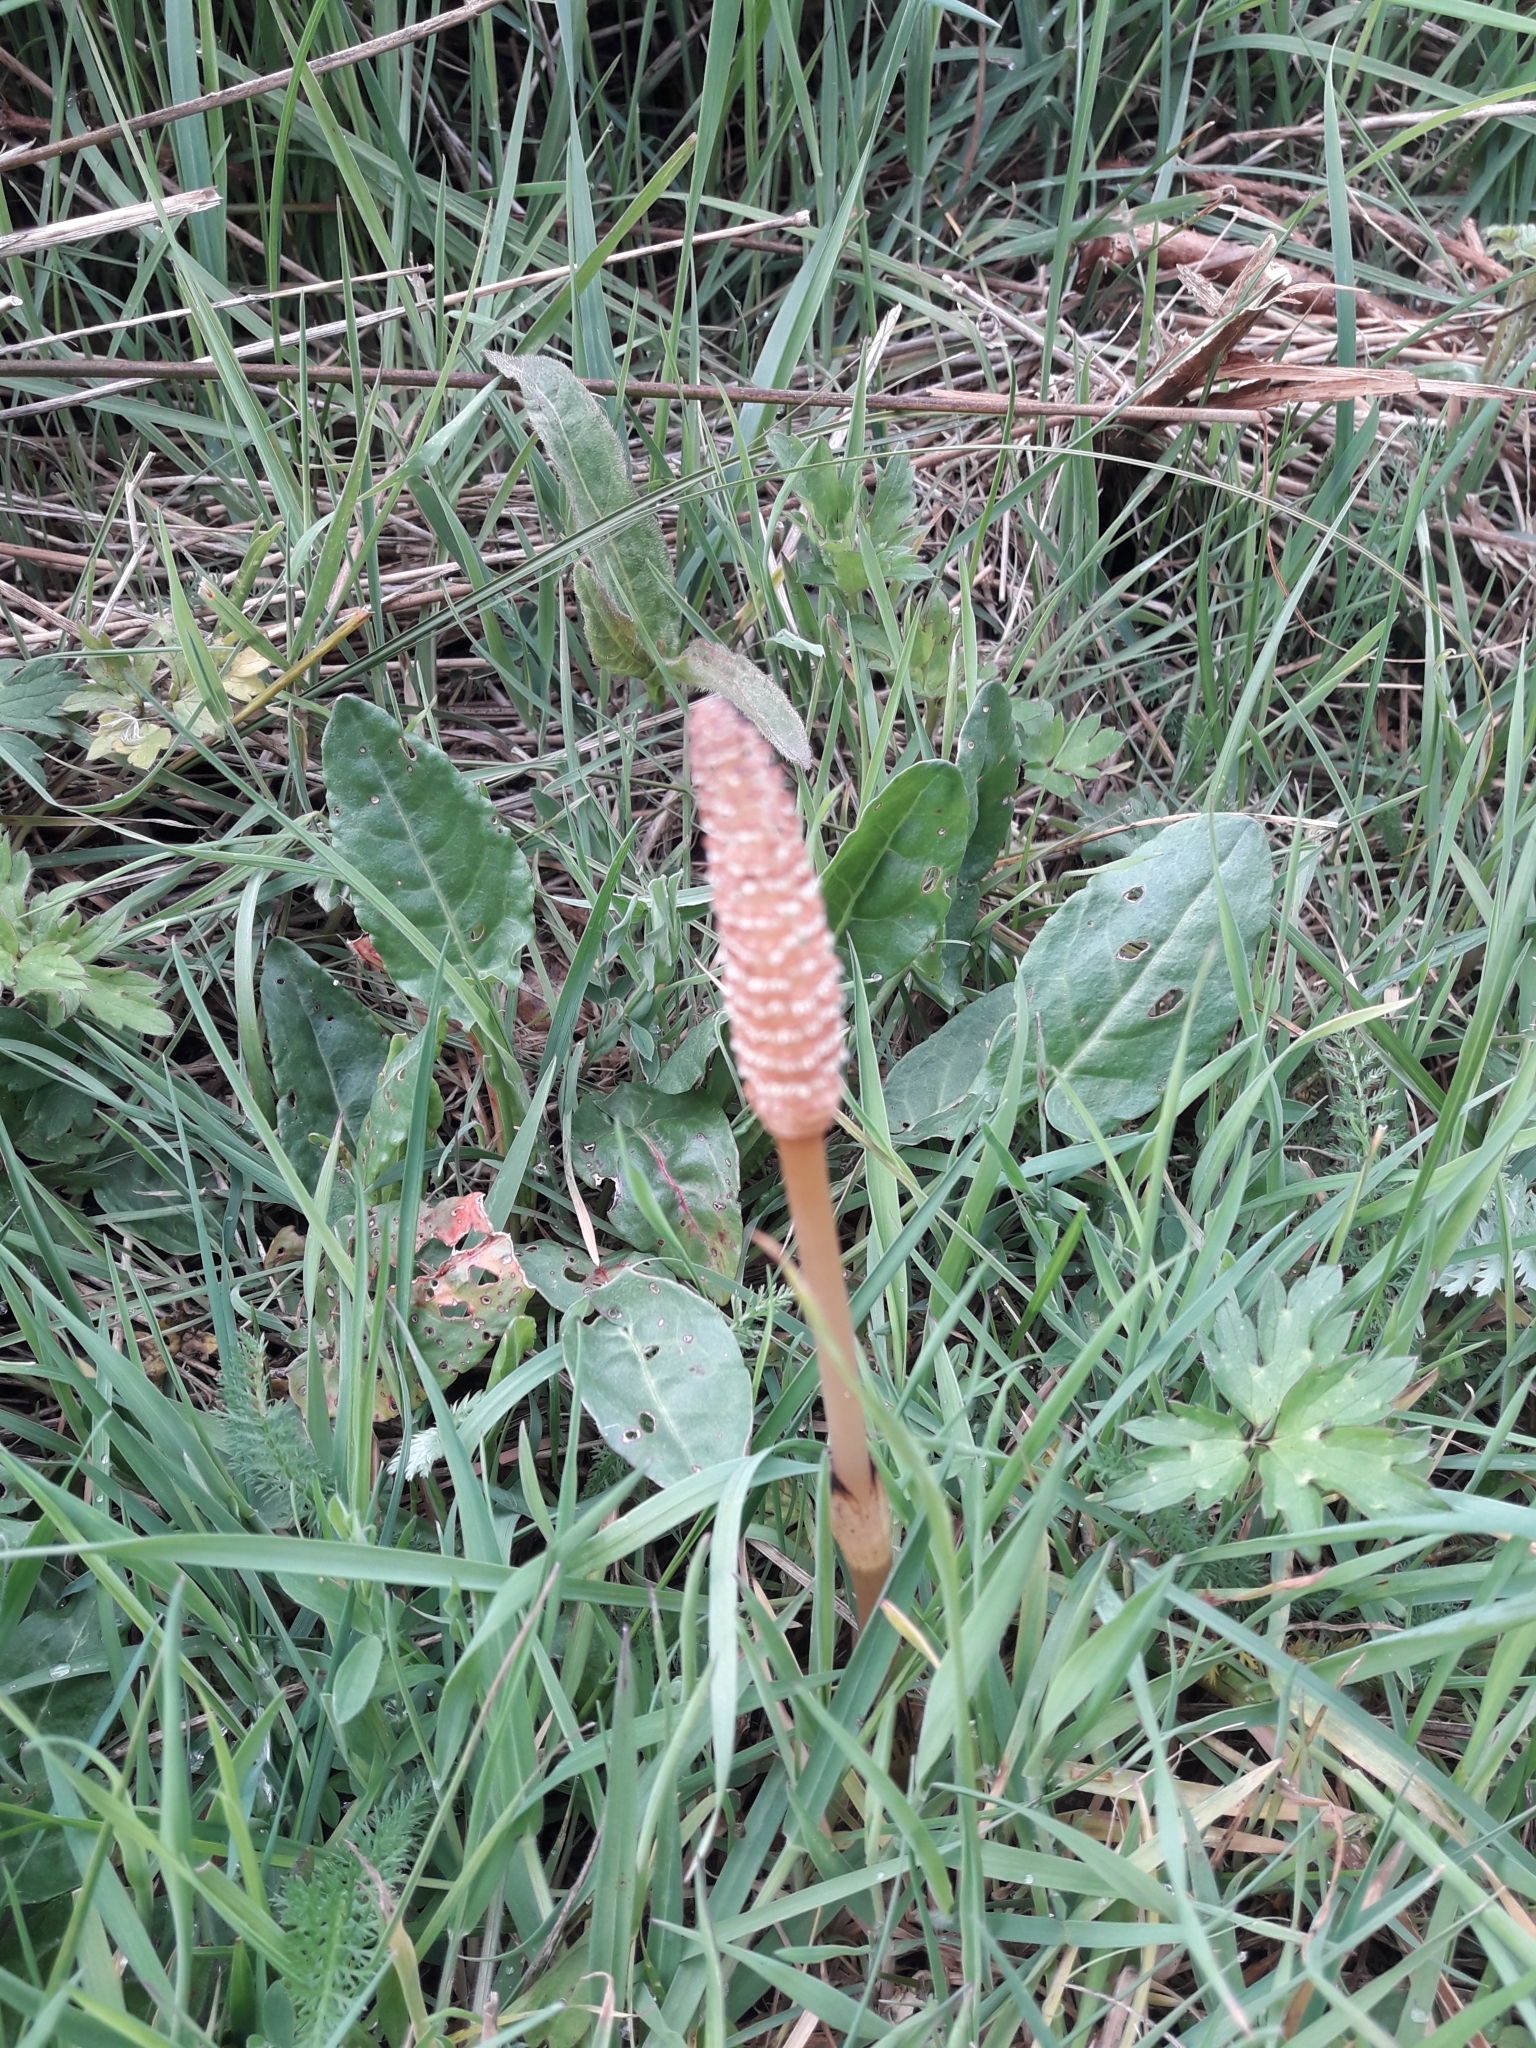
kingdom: Plantae
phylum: Tracheophyta
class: Polypodiopsida
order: Equisetales
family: Equisetaceae
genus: Equisetum
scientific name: Equisetum arvense
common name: Field horsetail
